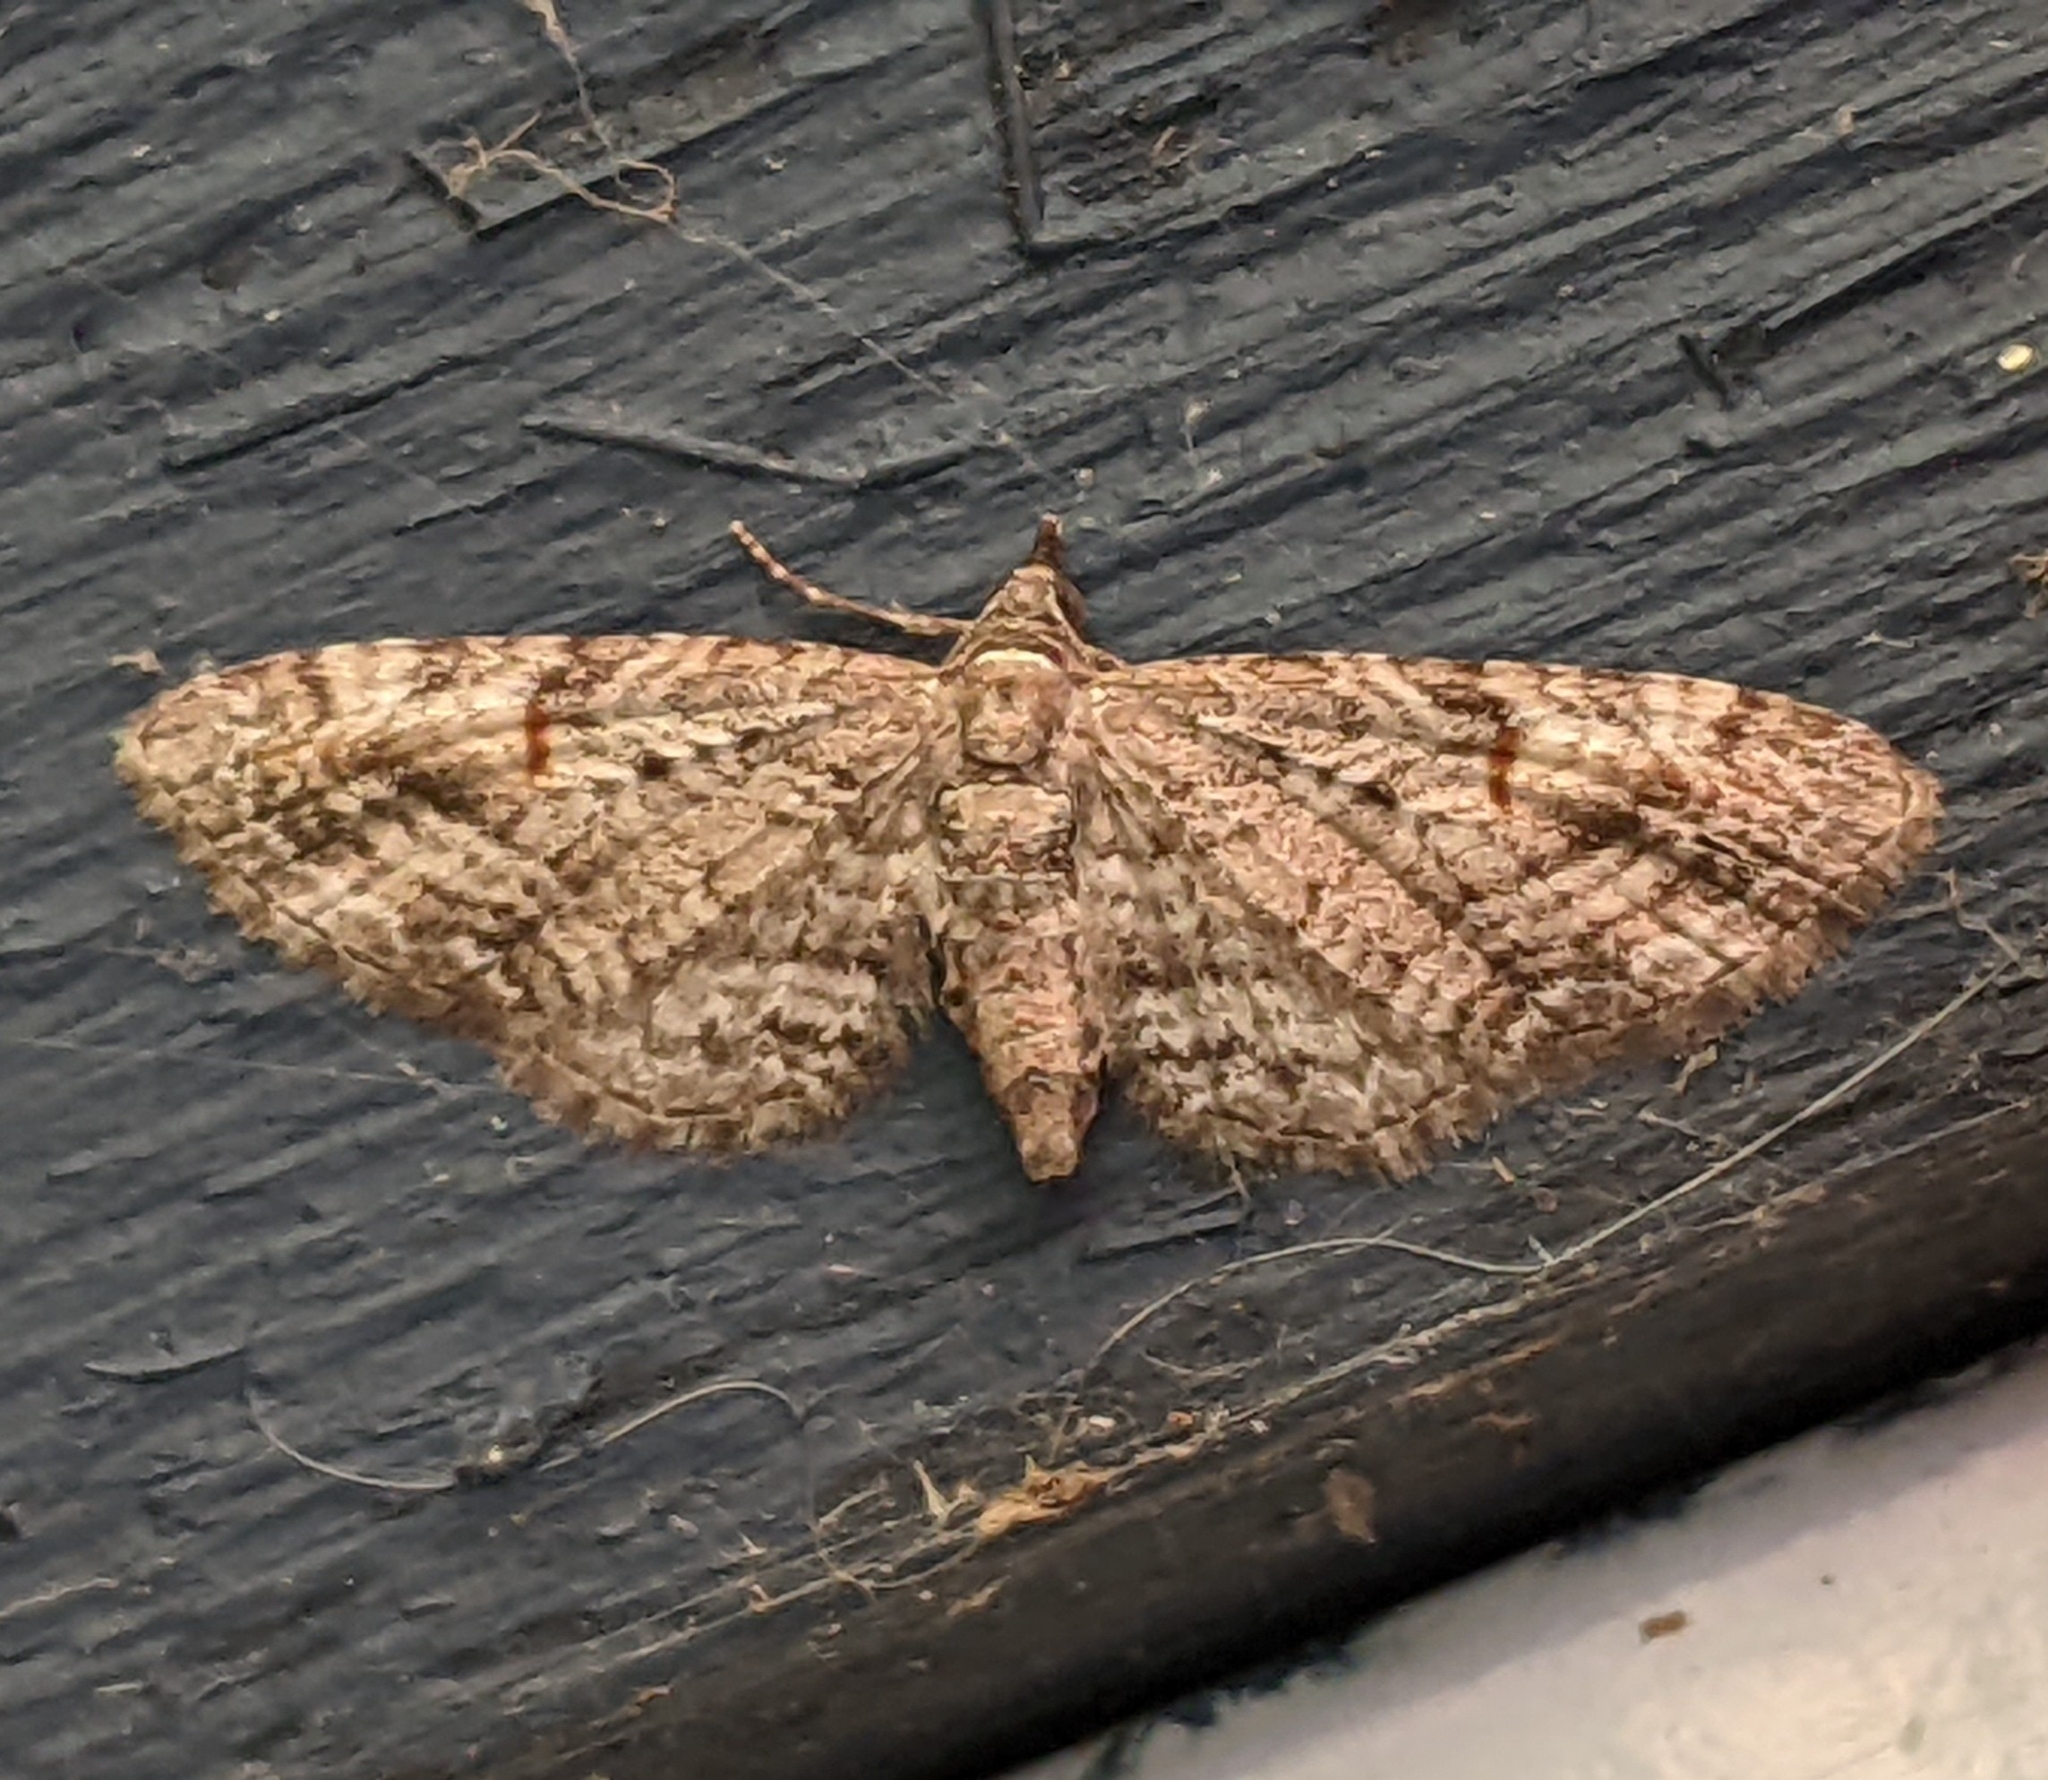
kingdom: Animalia
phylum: Arthropoda
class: Insecta
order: Lepidoptera
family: Geometridae
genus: Eupithecia
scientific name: Eupithecia graefii
